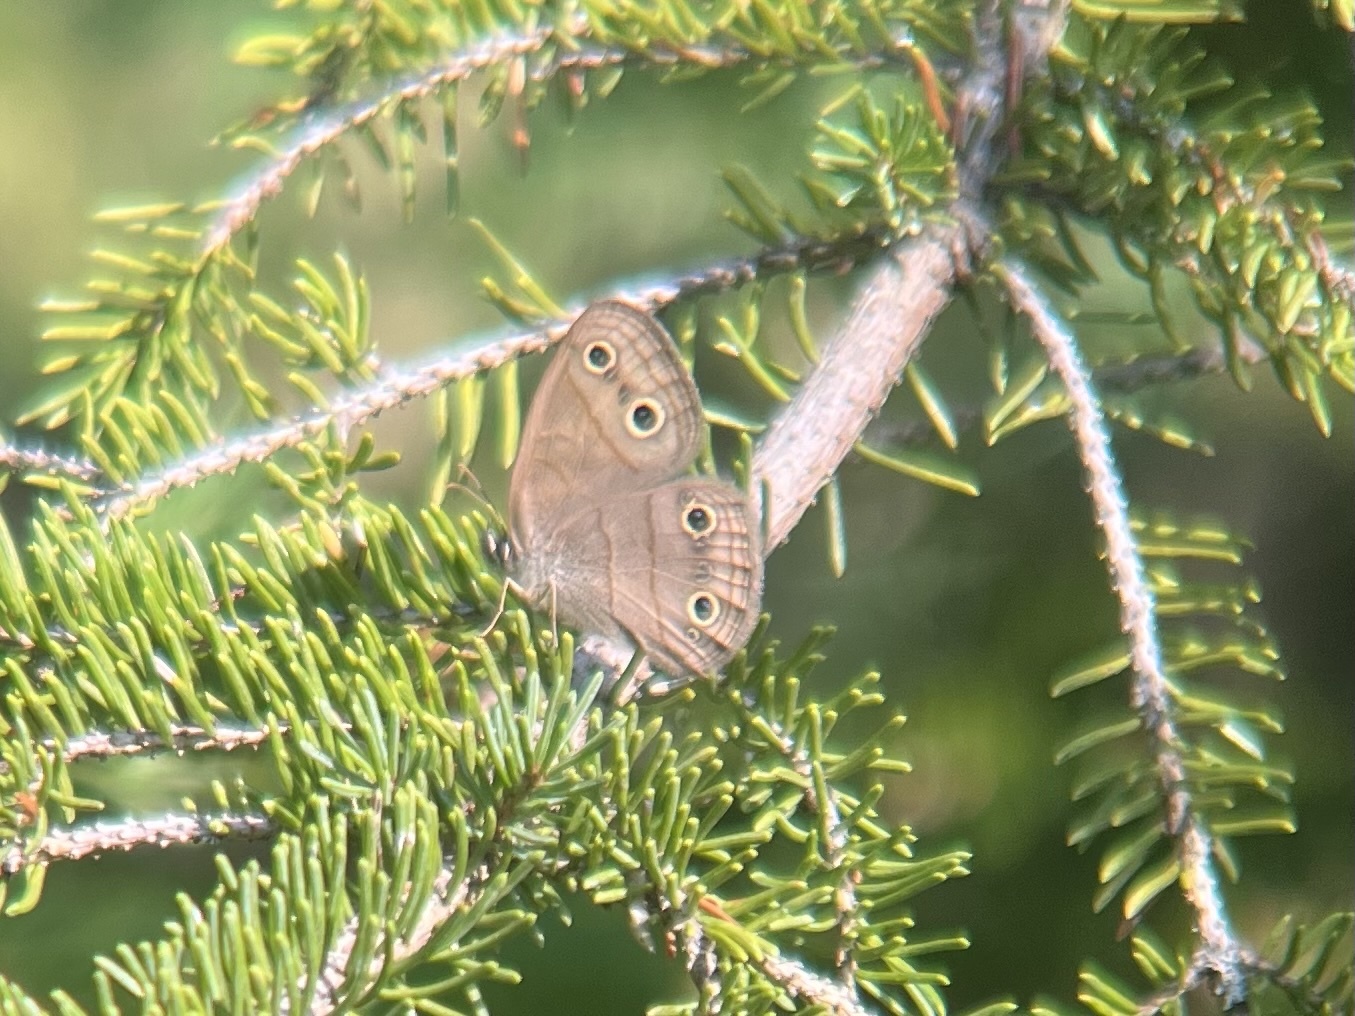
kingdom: Animalia
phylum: Arthropoda
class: Insecta
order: Lepidoptera
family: Nymphalidae
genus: Euptychia
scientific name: Euptychia cymela
